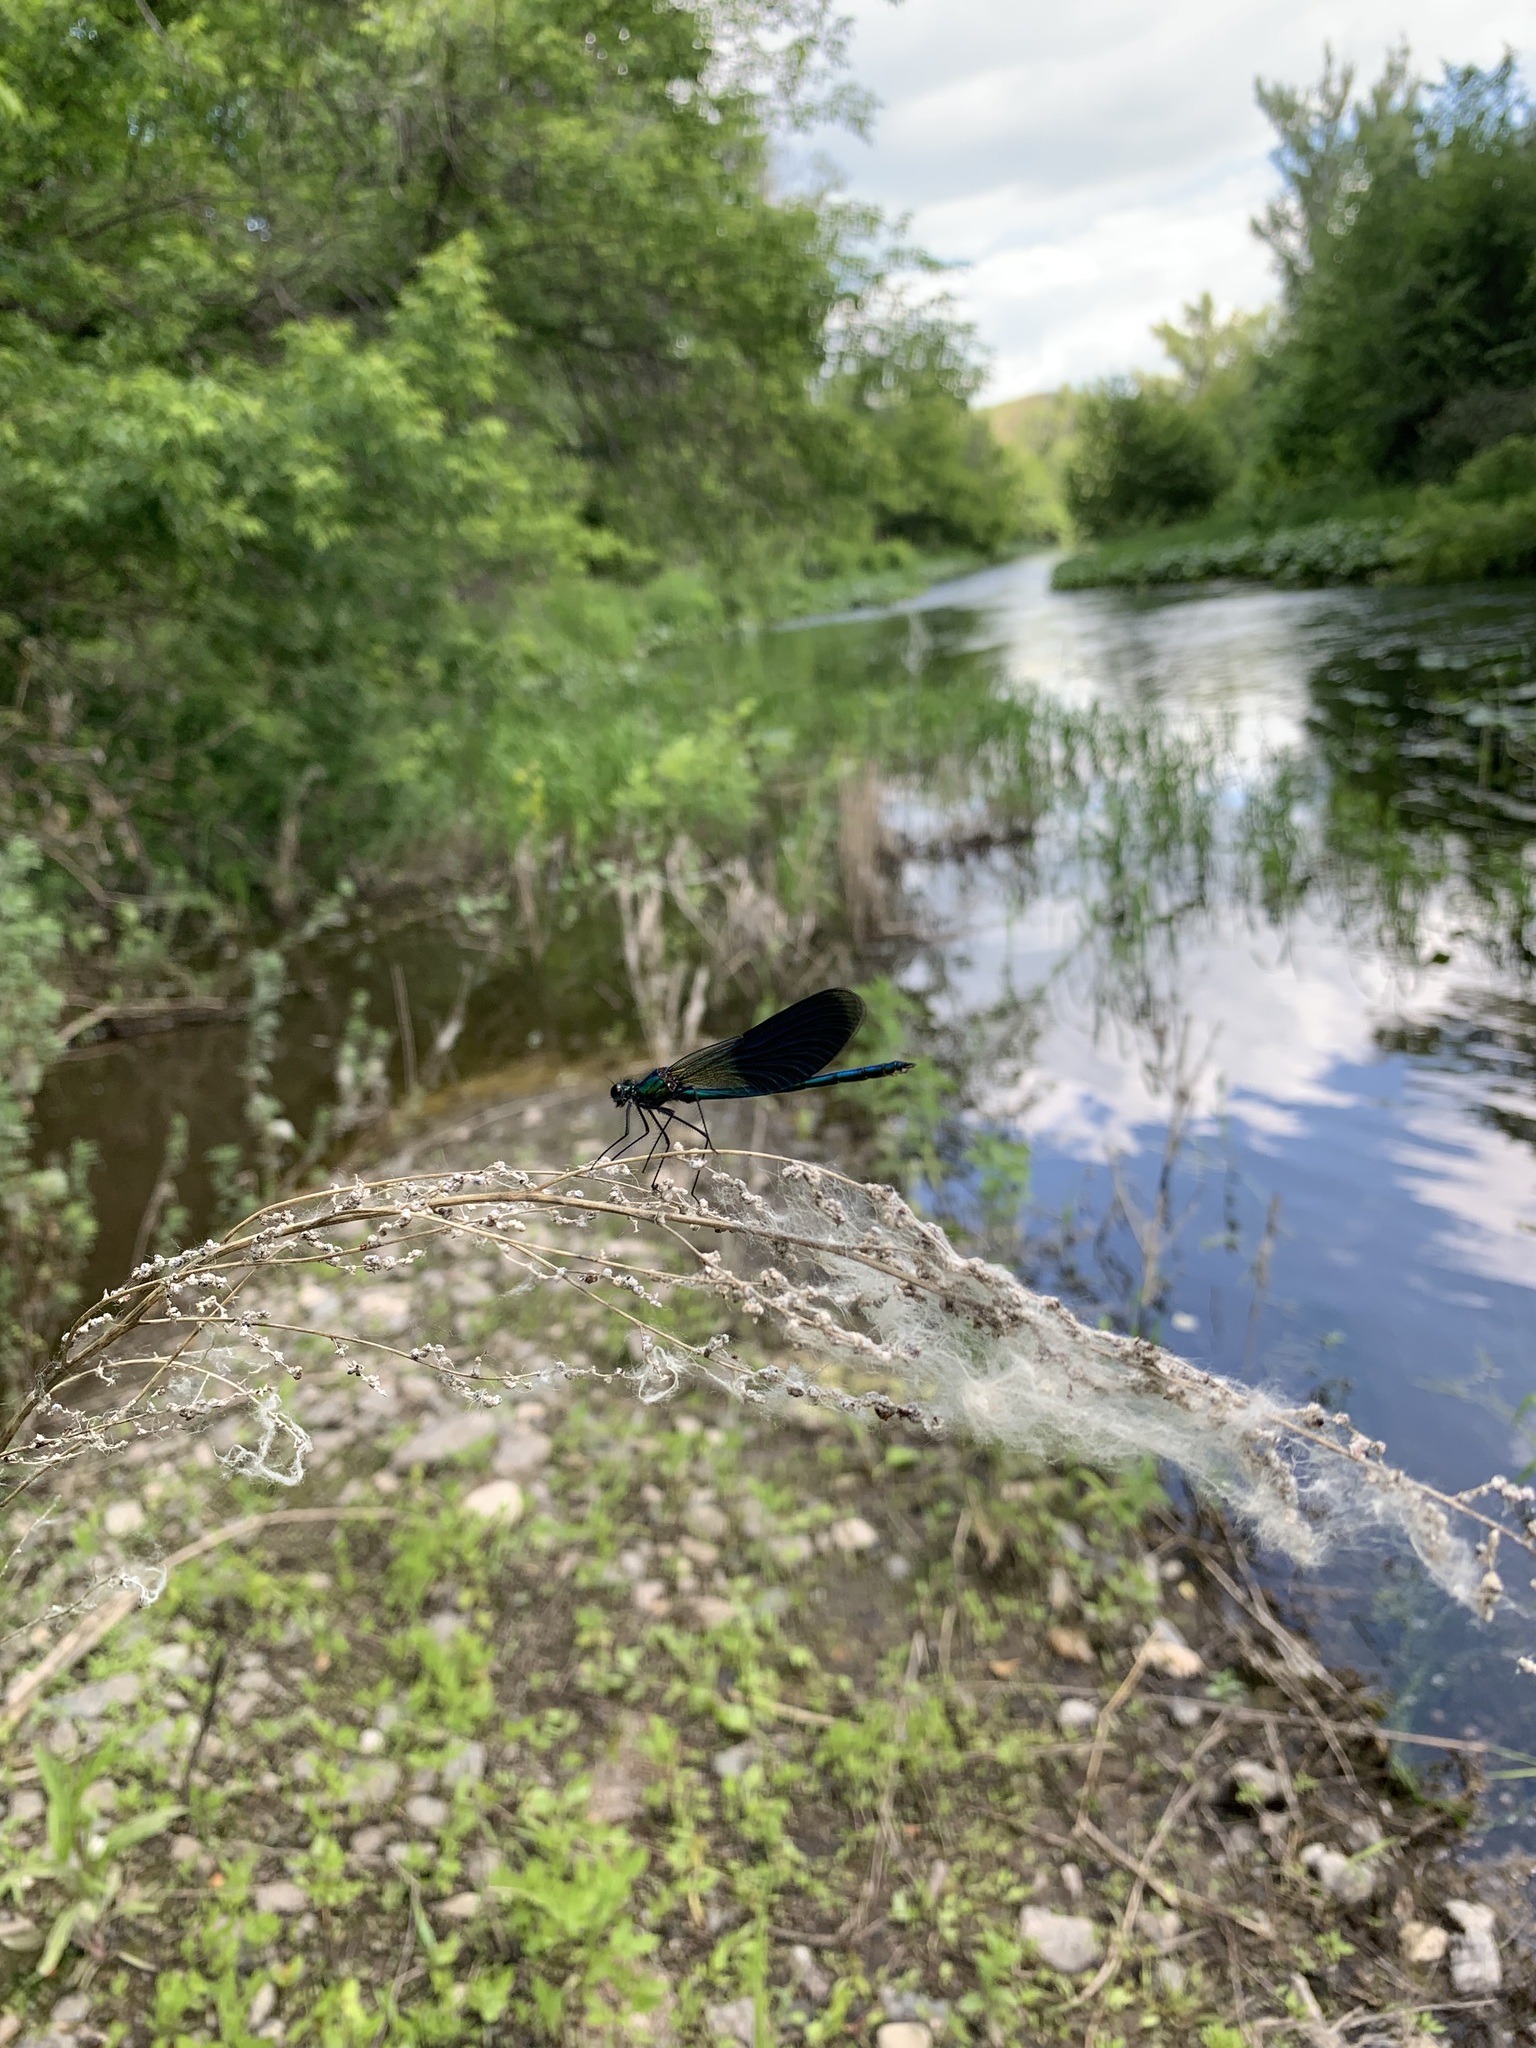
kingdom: Animalia
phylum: Arthropoda
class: Insecta
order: Odonata
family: Calopterygidae
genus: Calopteryx
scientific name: Calopteryx splendens
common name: Banded demoiselle
